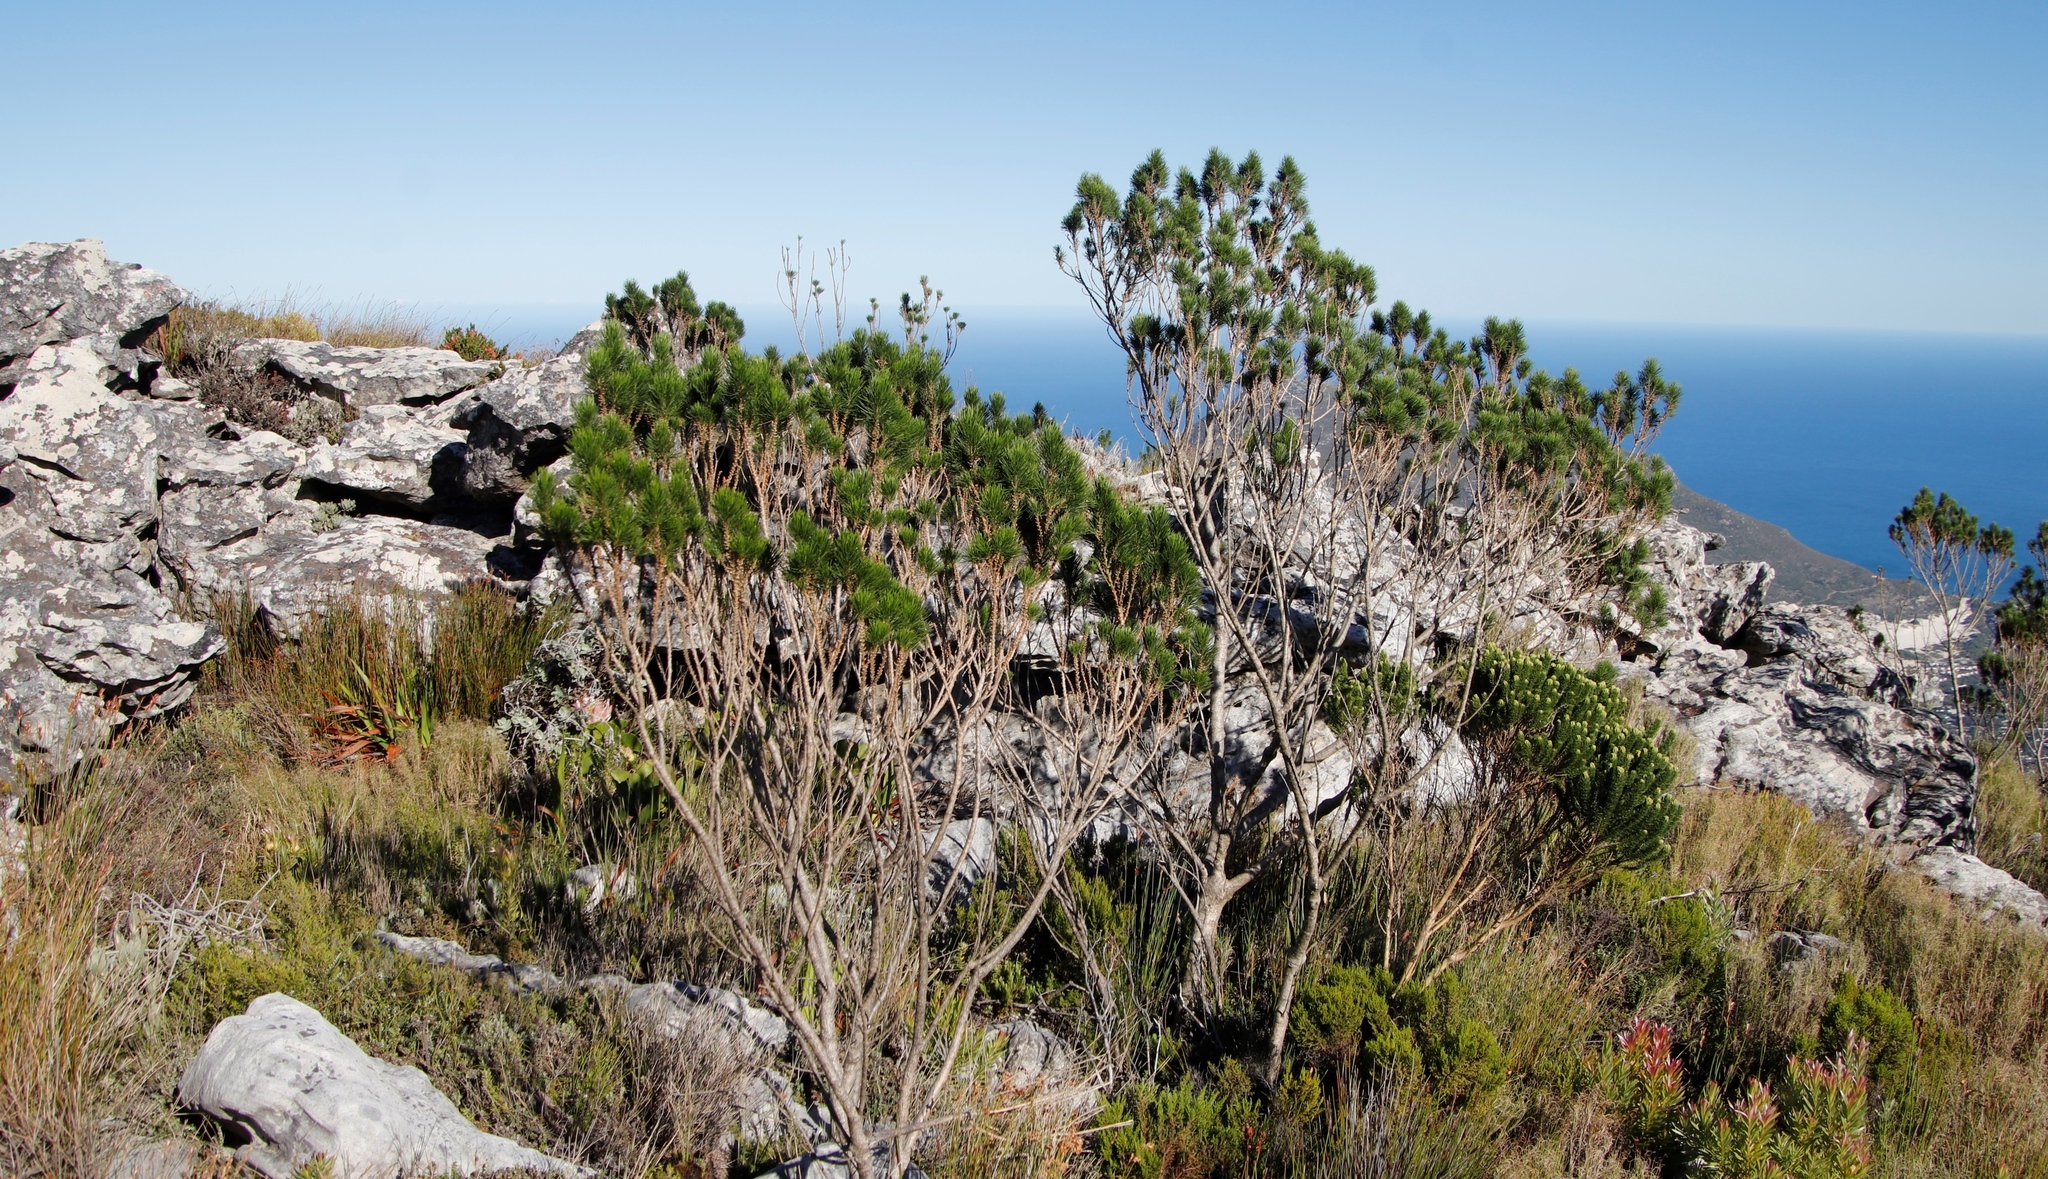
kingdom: Plantae
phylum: Tracheophyta
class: Magnoliopsida
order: Fabales
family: Fabaceae
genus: Psoralea
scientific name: Psoralea pinnata
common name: African scurfpea
